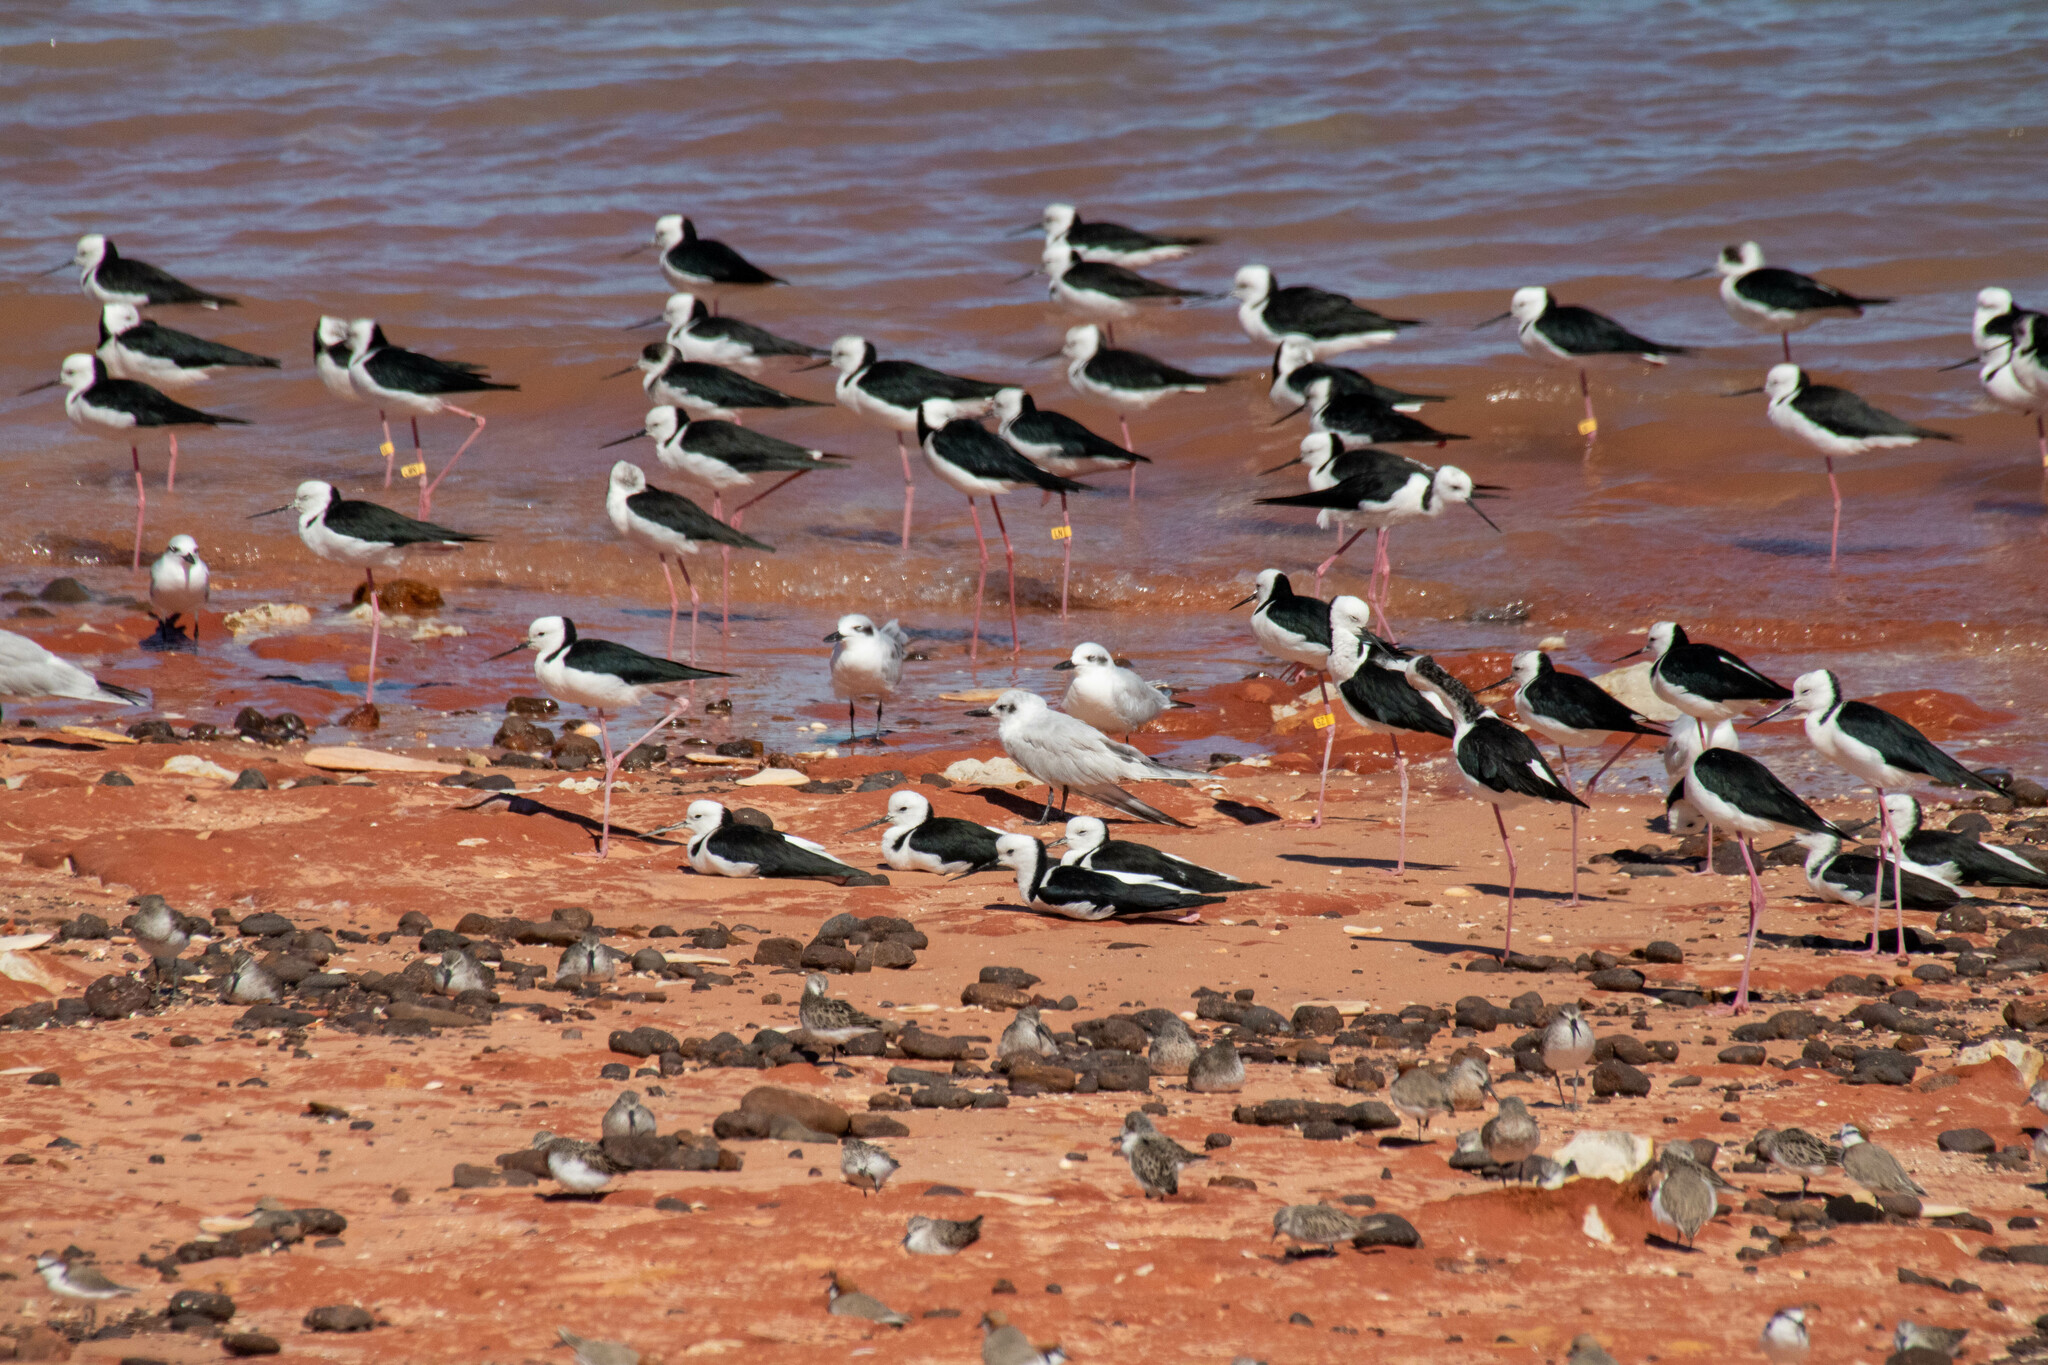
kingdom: Animalia
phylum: Chordata
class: Aves
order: Charadriiformes
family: Recurvirostridae
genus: Himantopus
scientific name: Himantopus leucocephalus
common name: White-headed stilt
